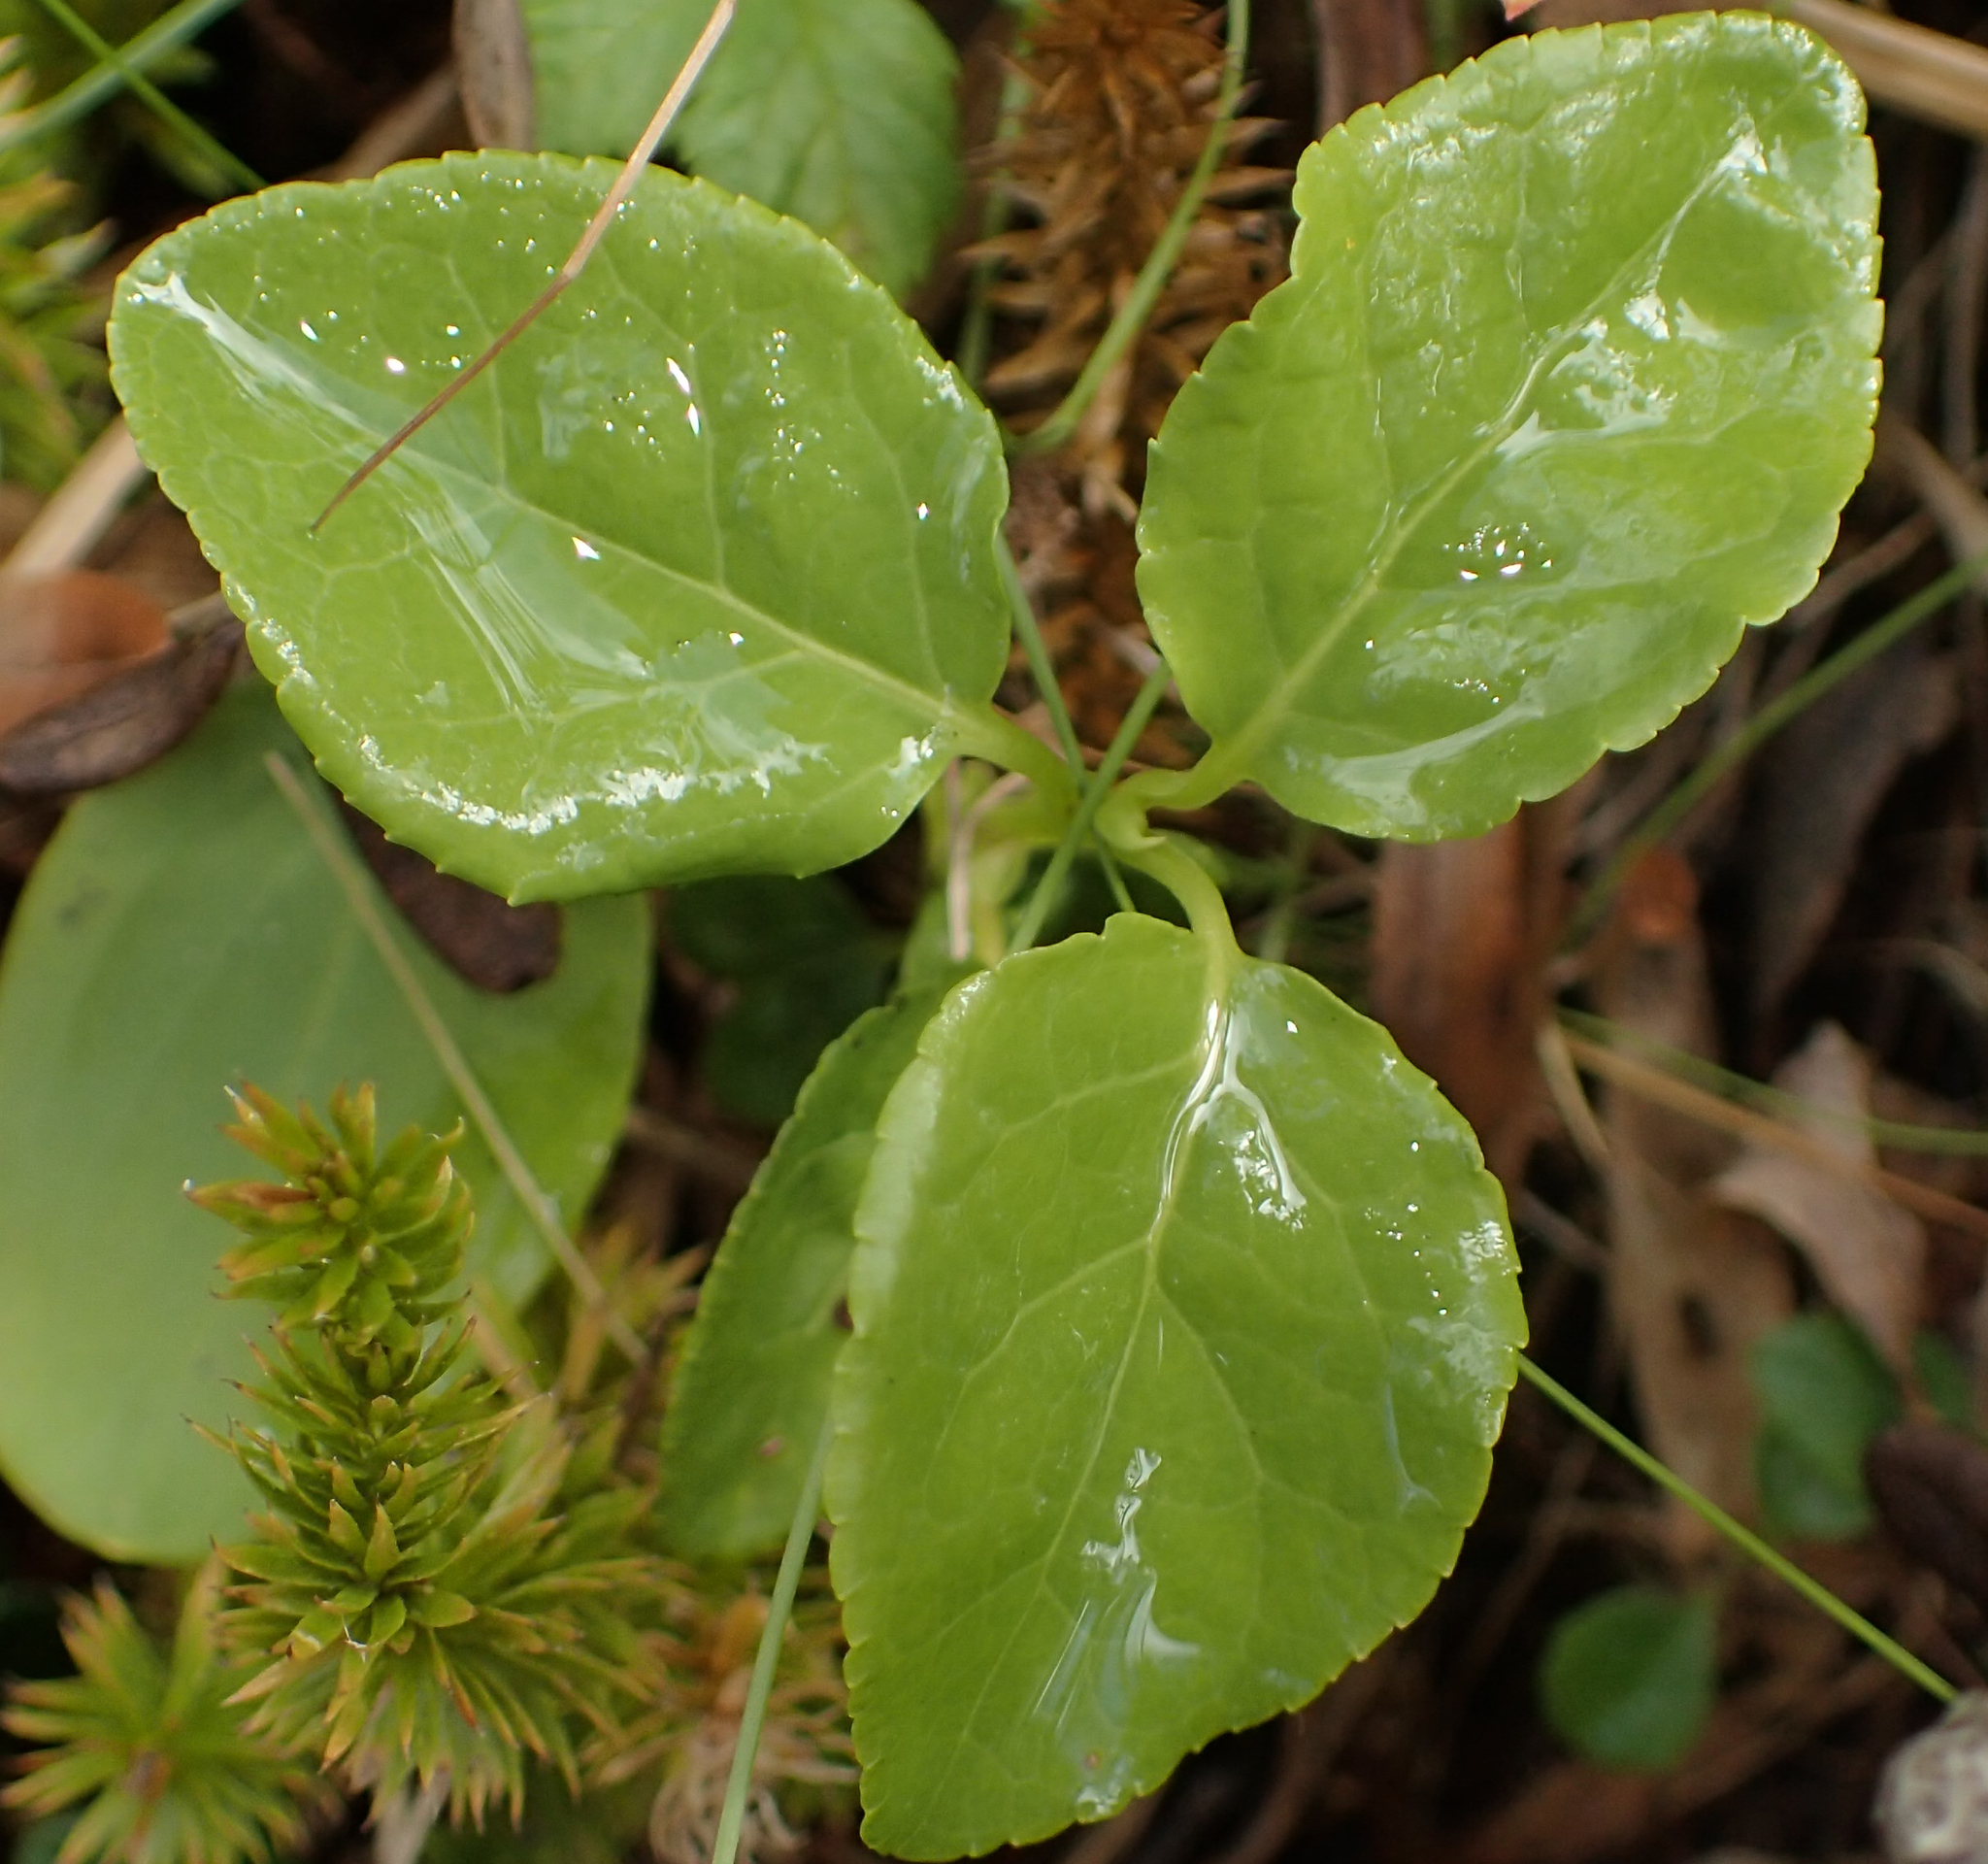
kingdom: Plantae
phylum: Tracheophyta
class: Magnoliopsida
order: Ericales
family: Ericaceae
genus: Orthilia
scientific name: Orthilia secunda
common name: One-sided orthilia
